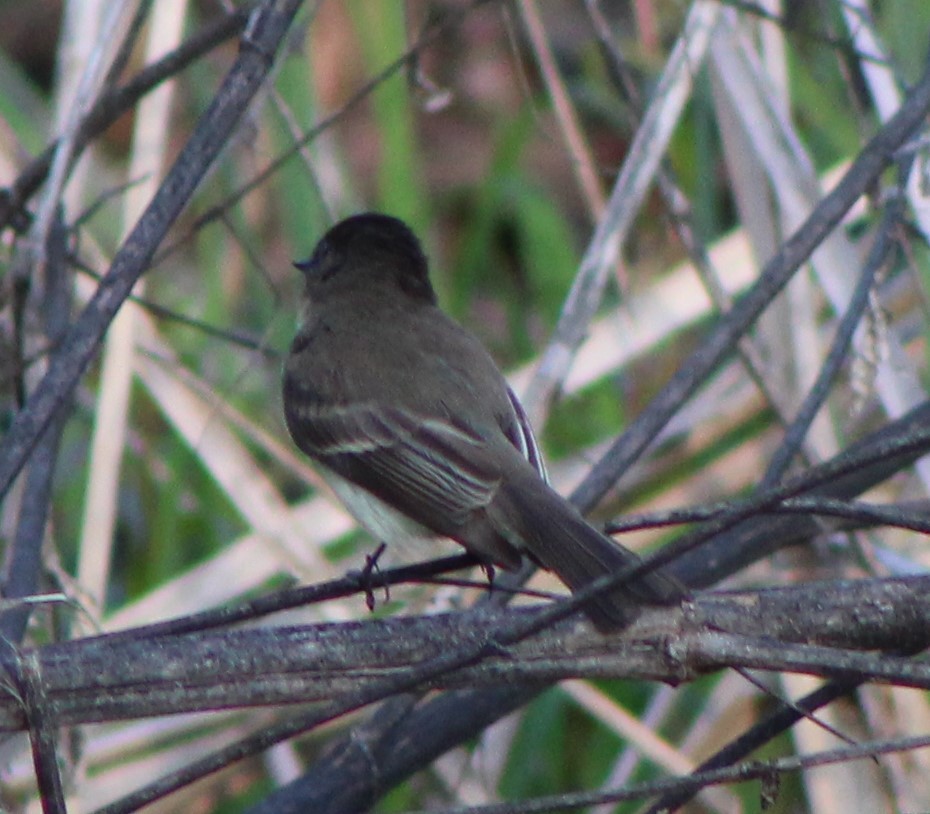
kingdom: Animalia
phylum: Chordata
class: Aves
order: Passeriformes
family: Tyrannidae
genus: Sayornis
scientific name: Sayornis phoebe
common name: Eastern phoebe
